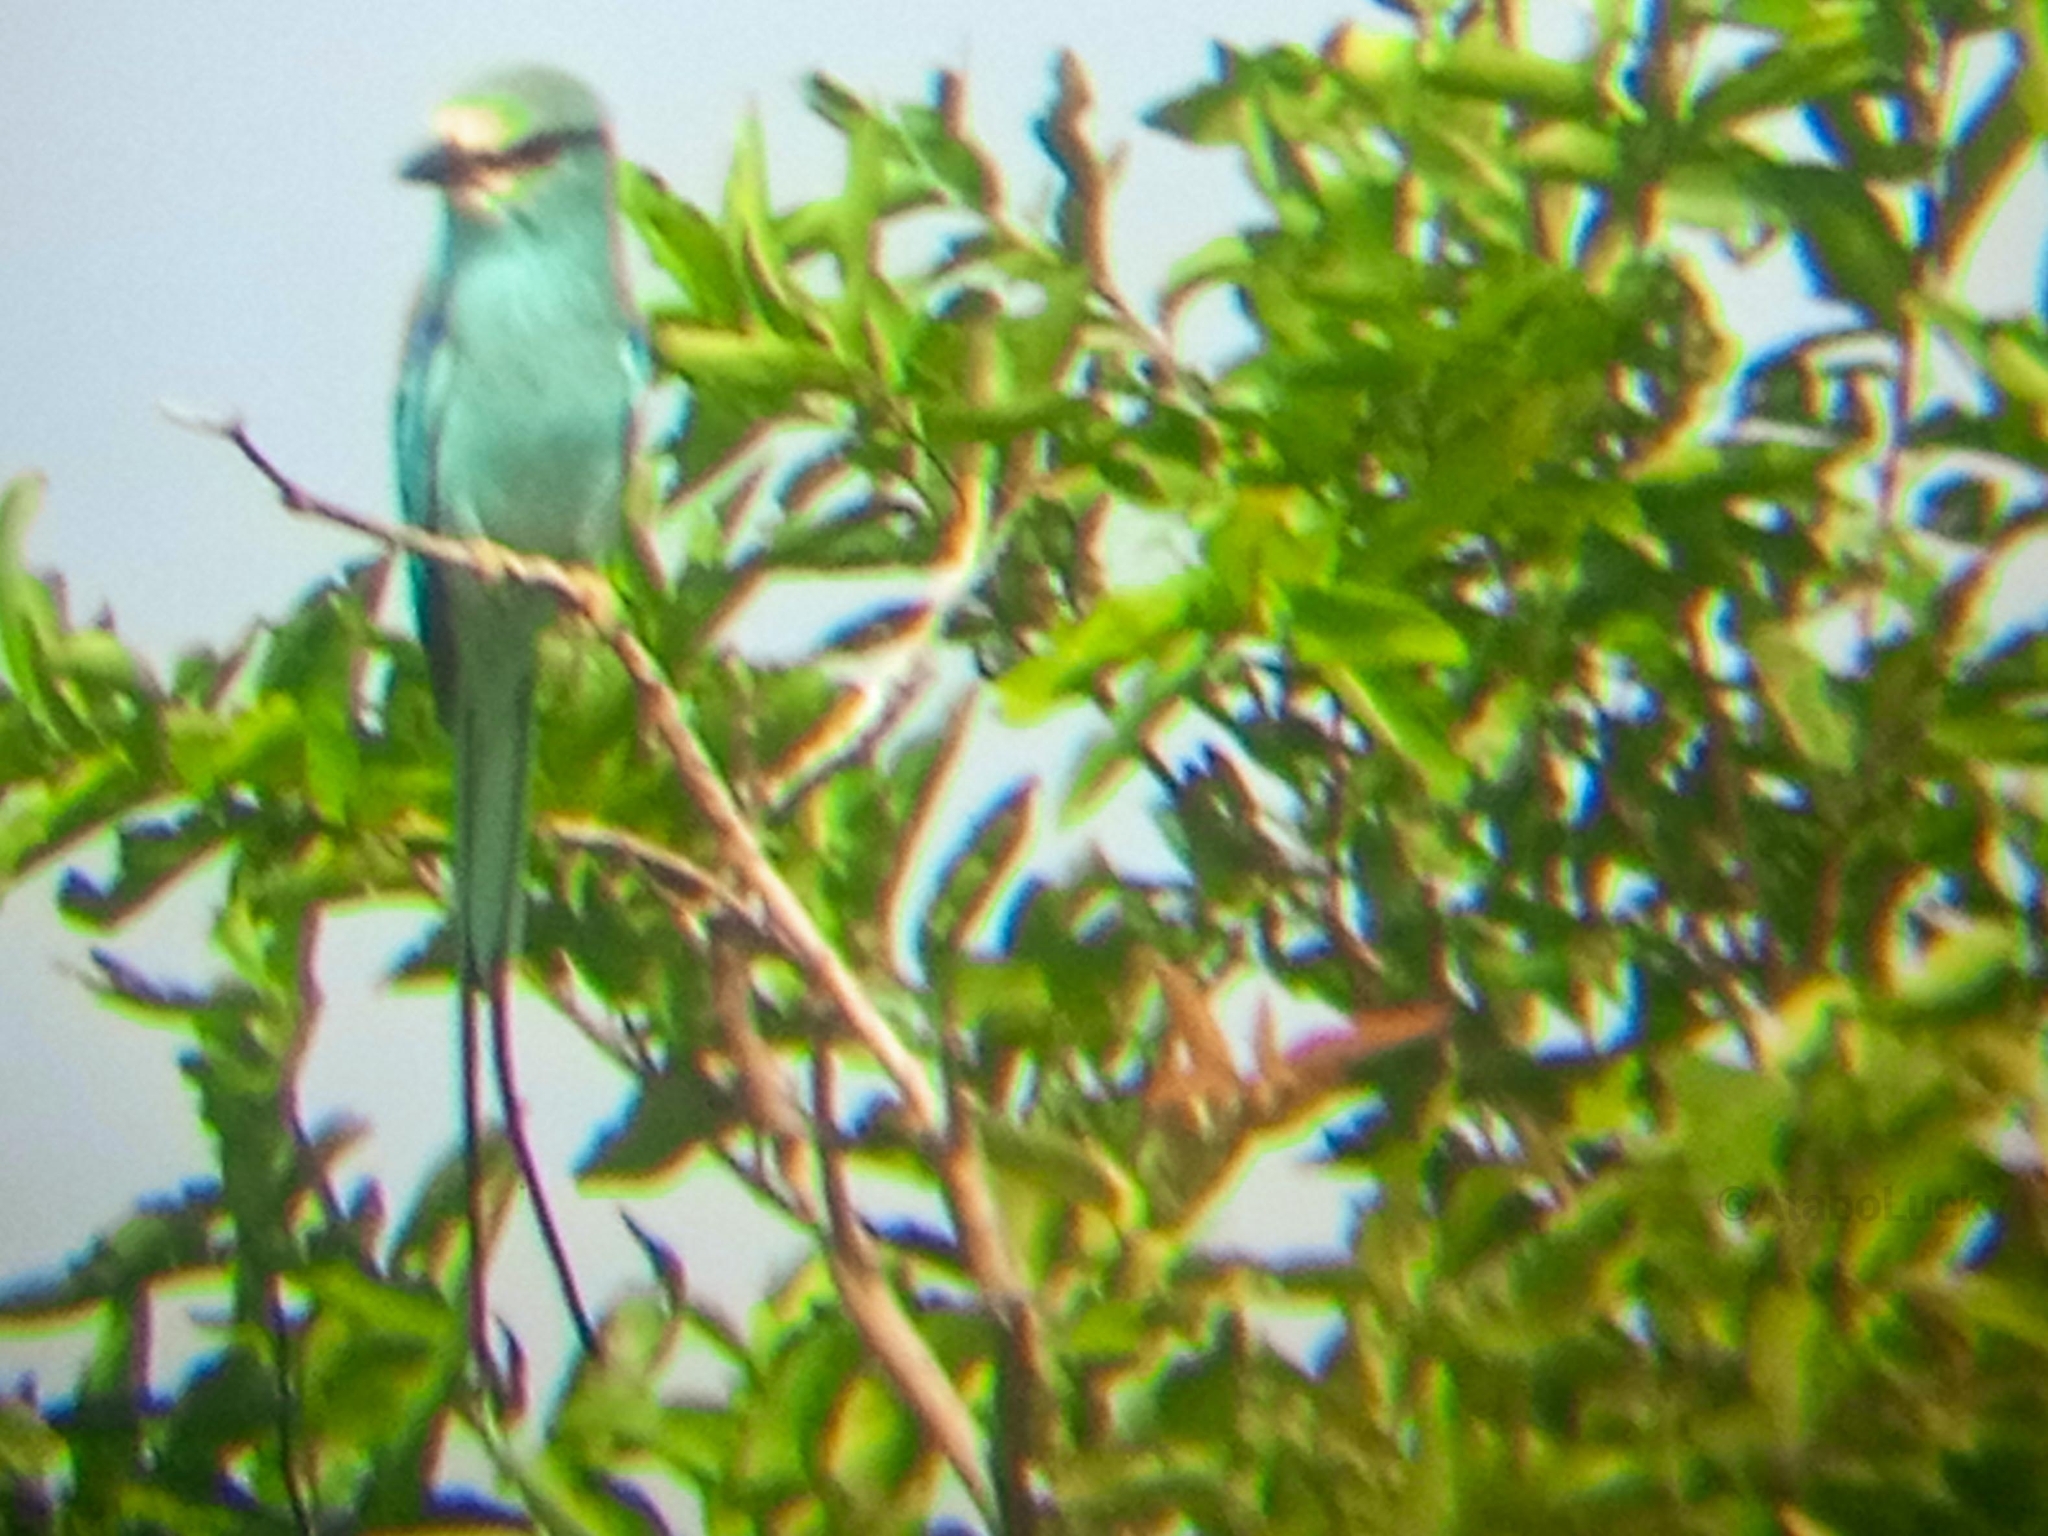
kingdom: Animalia
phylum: Chordata
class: Aves
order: Coraciiformes
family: Coraciidae
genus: Coracias
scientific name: Coracias abyssinicus
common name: Abyssinian roller
